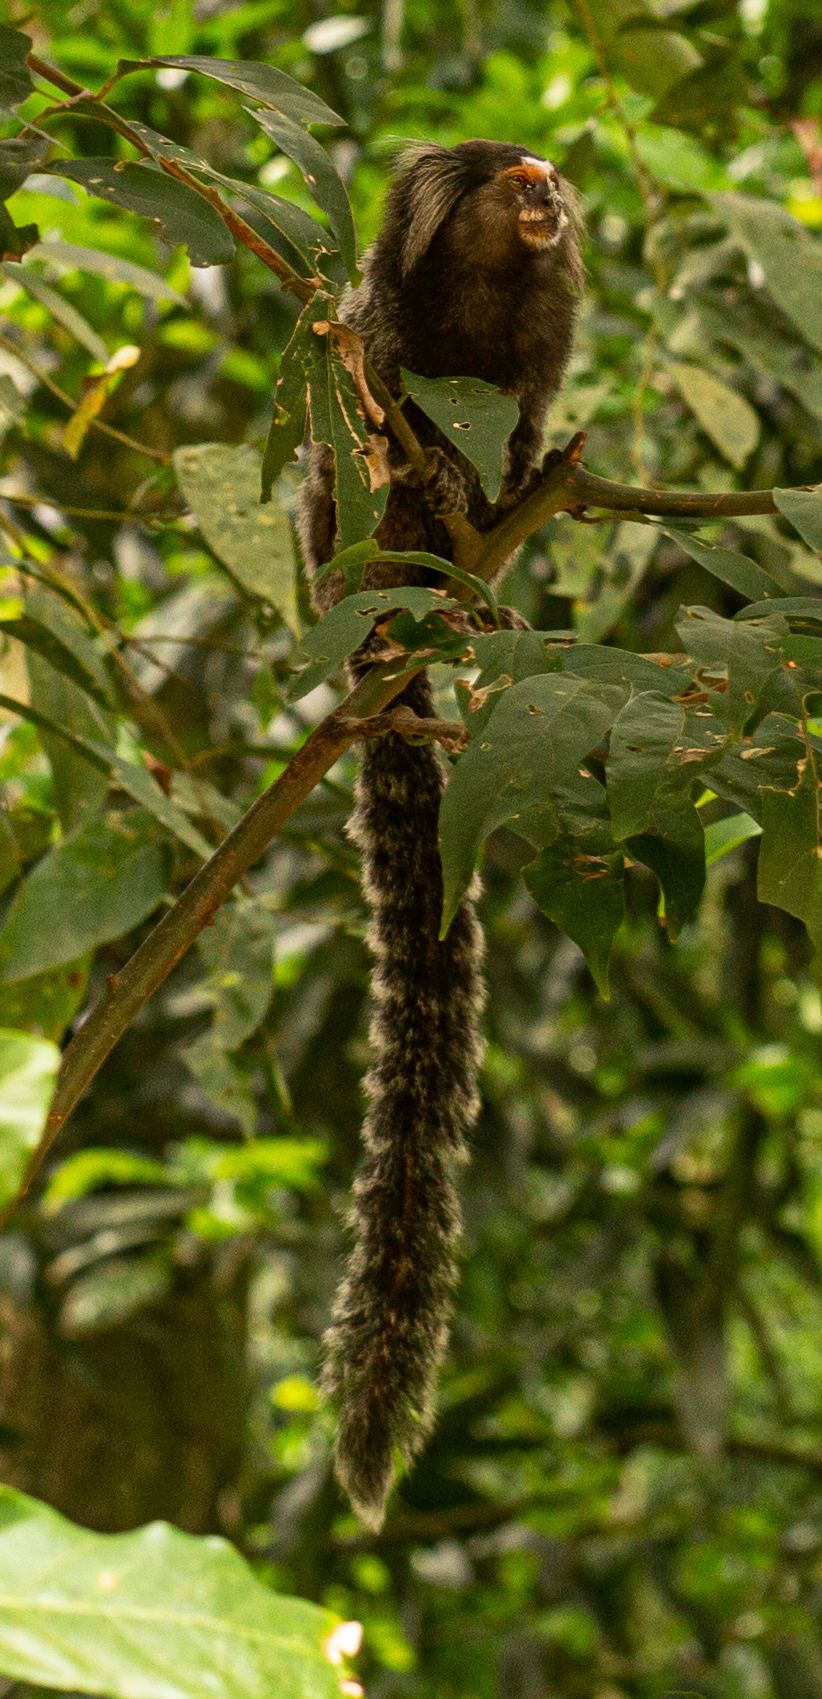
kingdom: Animalia
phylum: Chordata
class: Mammalia
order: Primates
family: Callitrichidae
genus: Callithrix
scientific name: Callithrix jacchus
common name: Common marmoset
